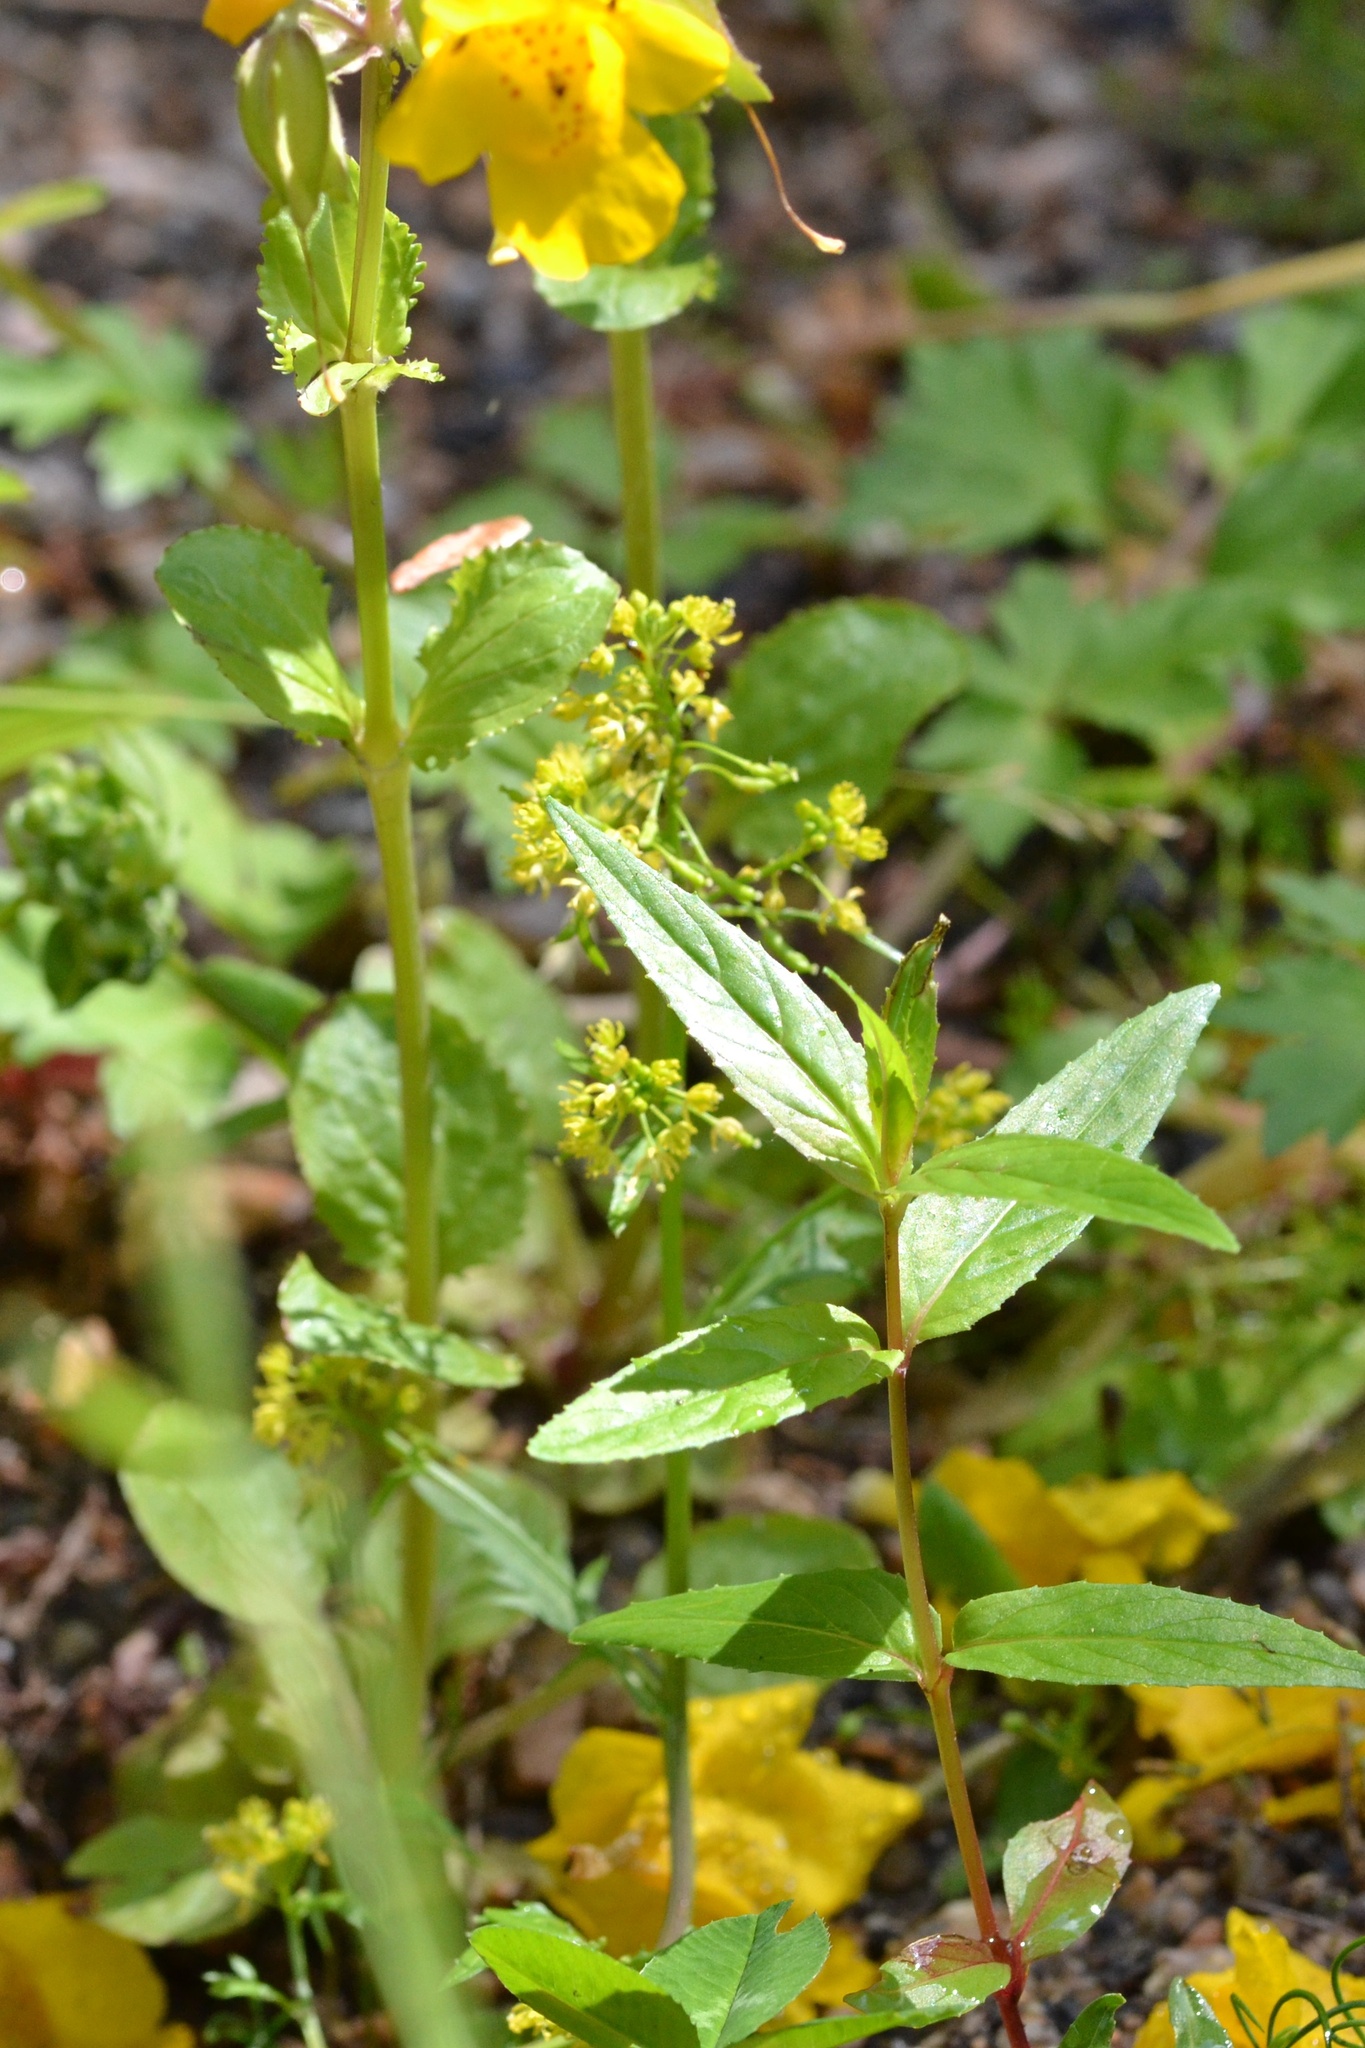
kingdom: Plantae
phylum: Tracheophyta
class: Magnoliopsida
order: Lamiales
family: Phrymaceae
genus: Erythranthe
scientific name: Erythranthe guttata
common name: Monkeyflower
